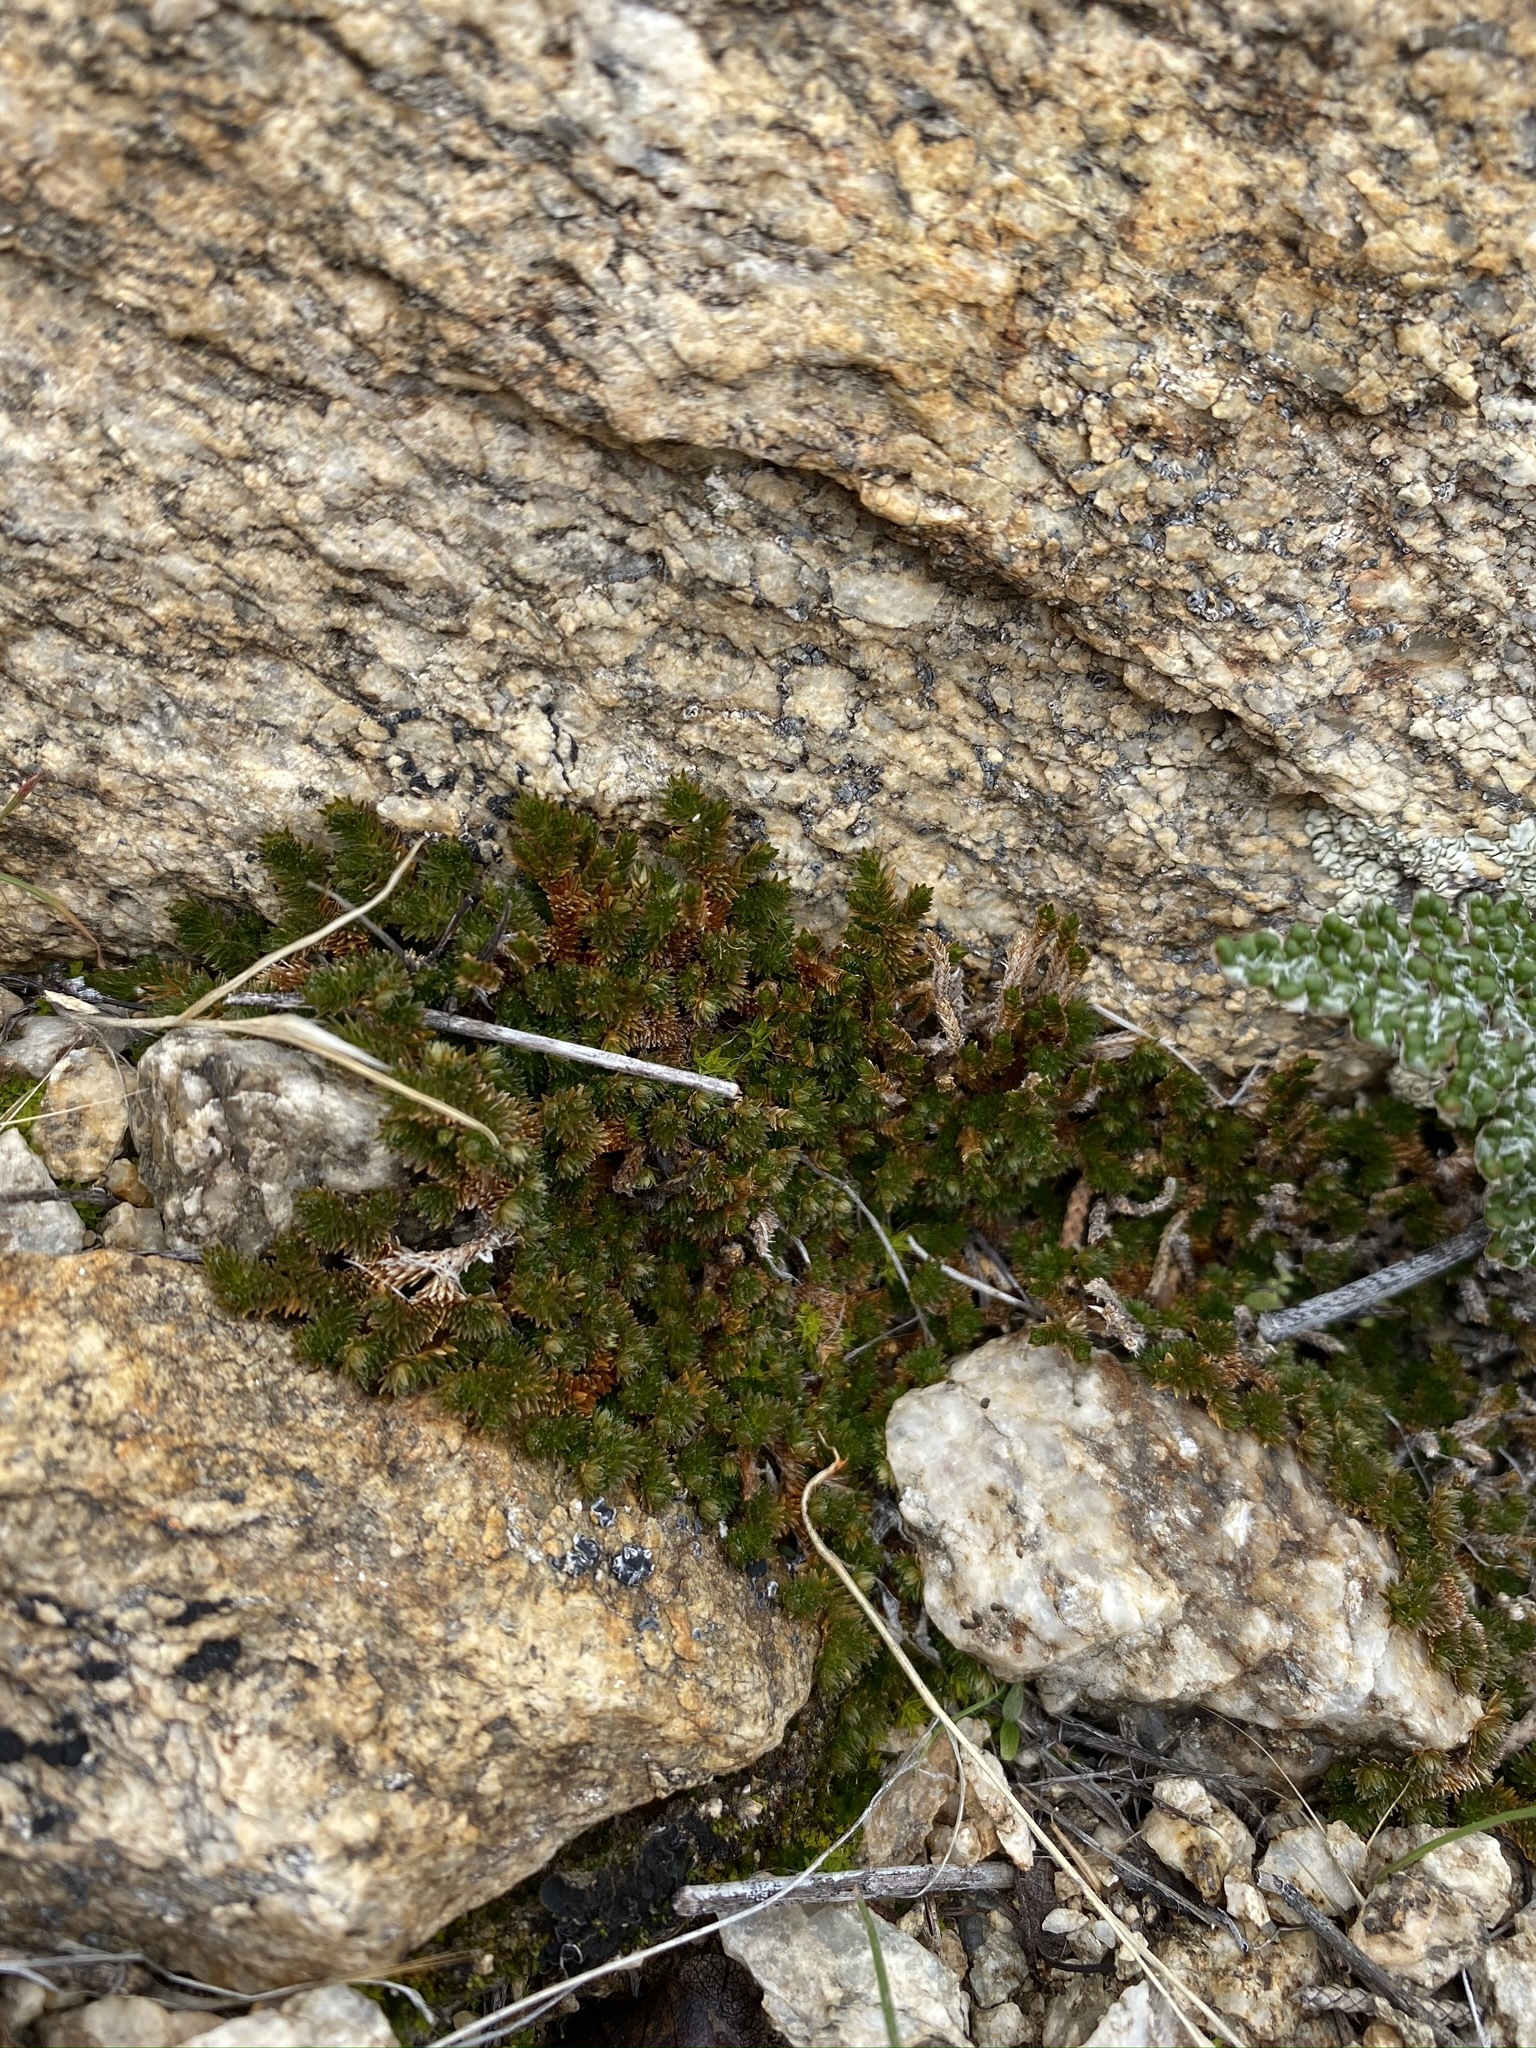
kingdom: Plantae
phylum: Tracheophyta
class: Lycopodiopsida
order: Selaginellales
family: Selaginellaceae
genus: Selaginella
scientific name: Selaginella eremophila
